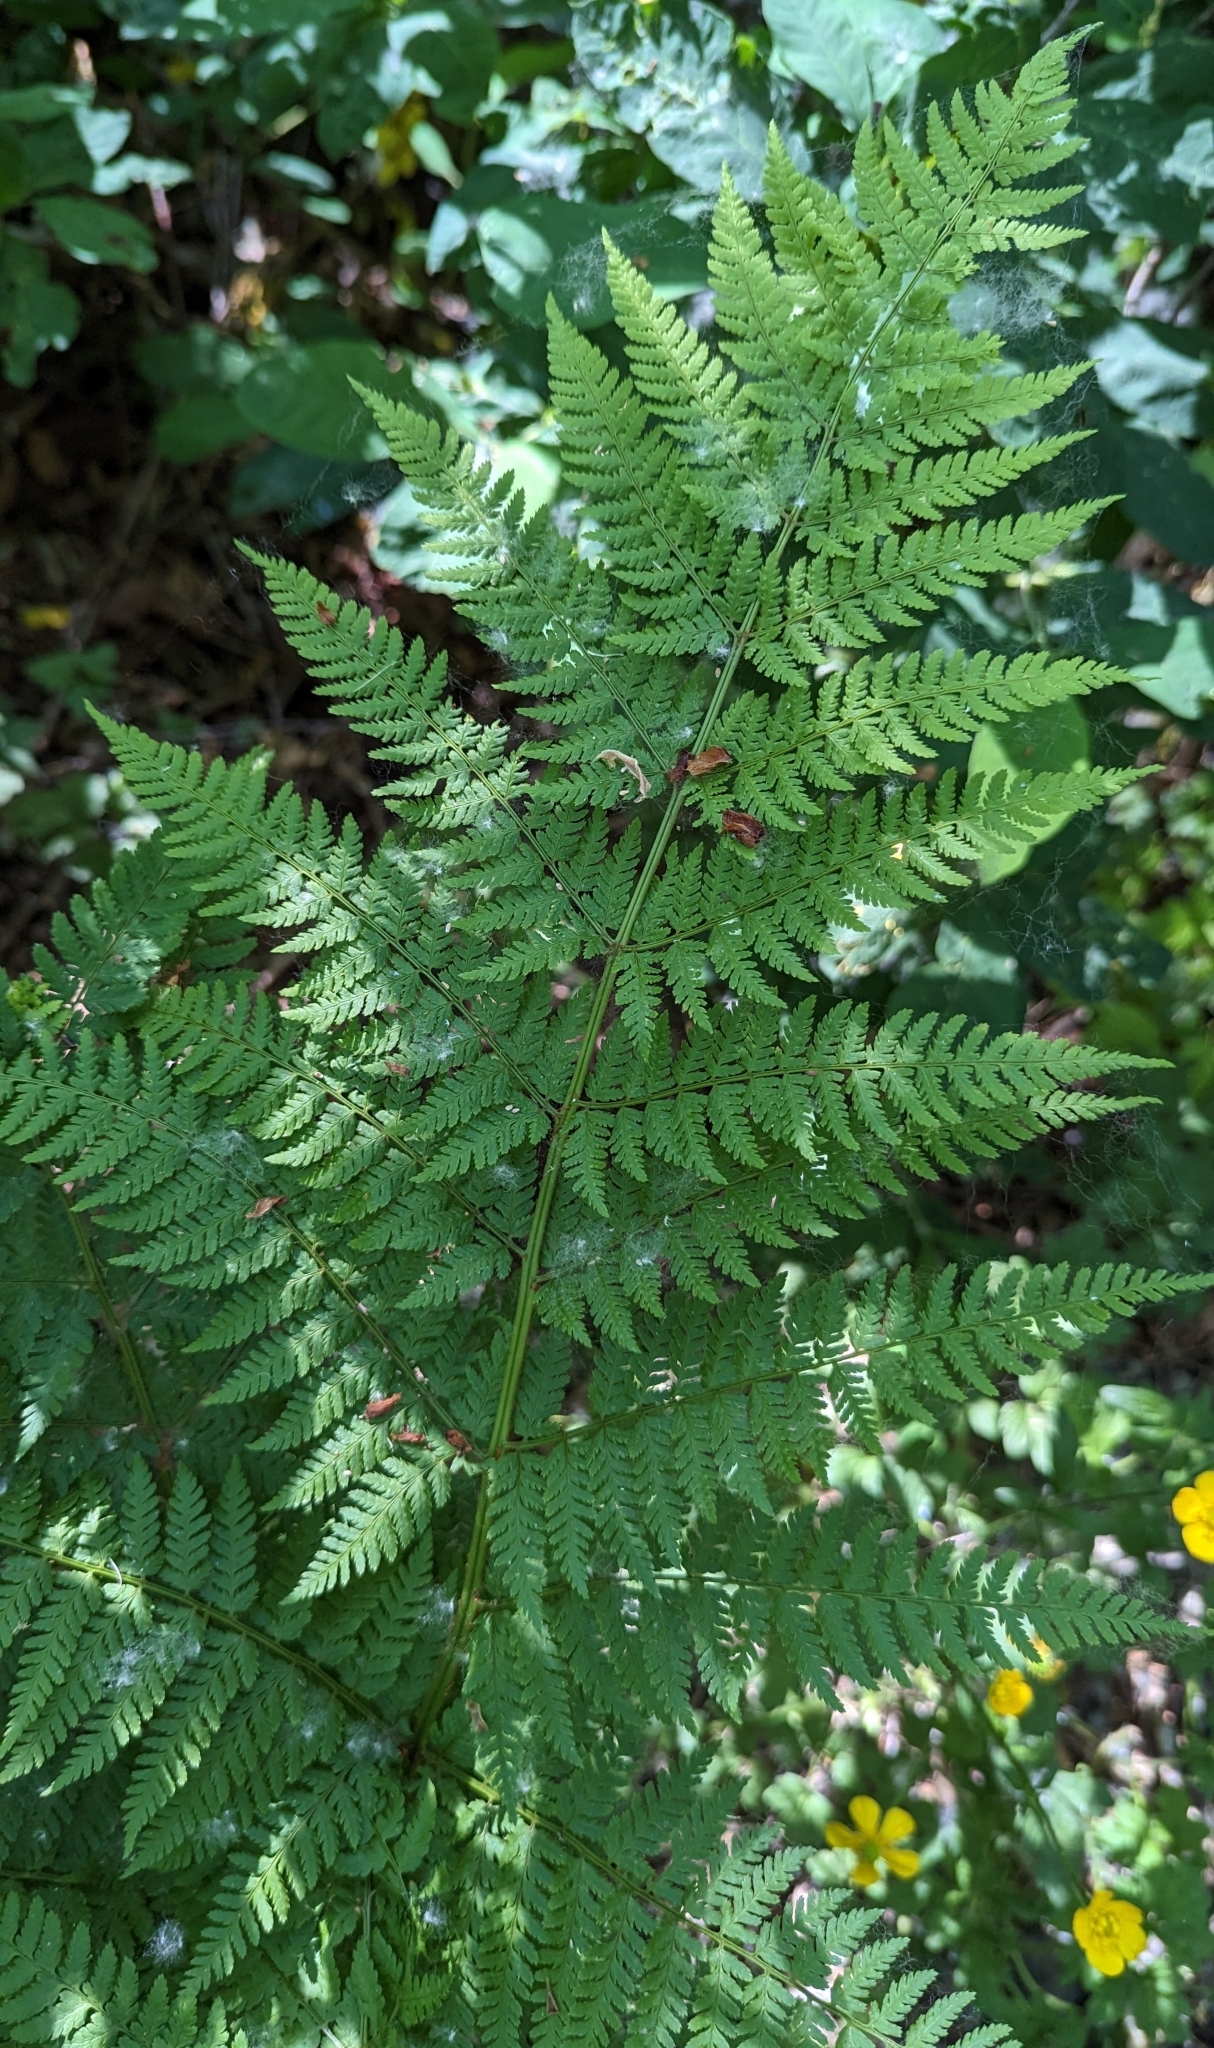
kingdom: Plantae
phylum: Tracheophyta
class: Polypodiopsida
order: Polypodiales
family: Dryopteridaceae
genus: Dryopteris
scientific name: Dryopteris expansa
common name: Northern buckler fern
